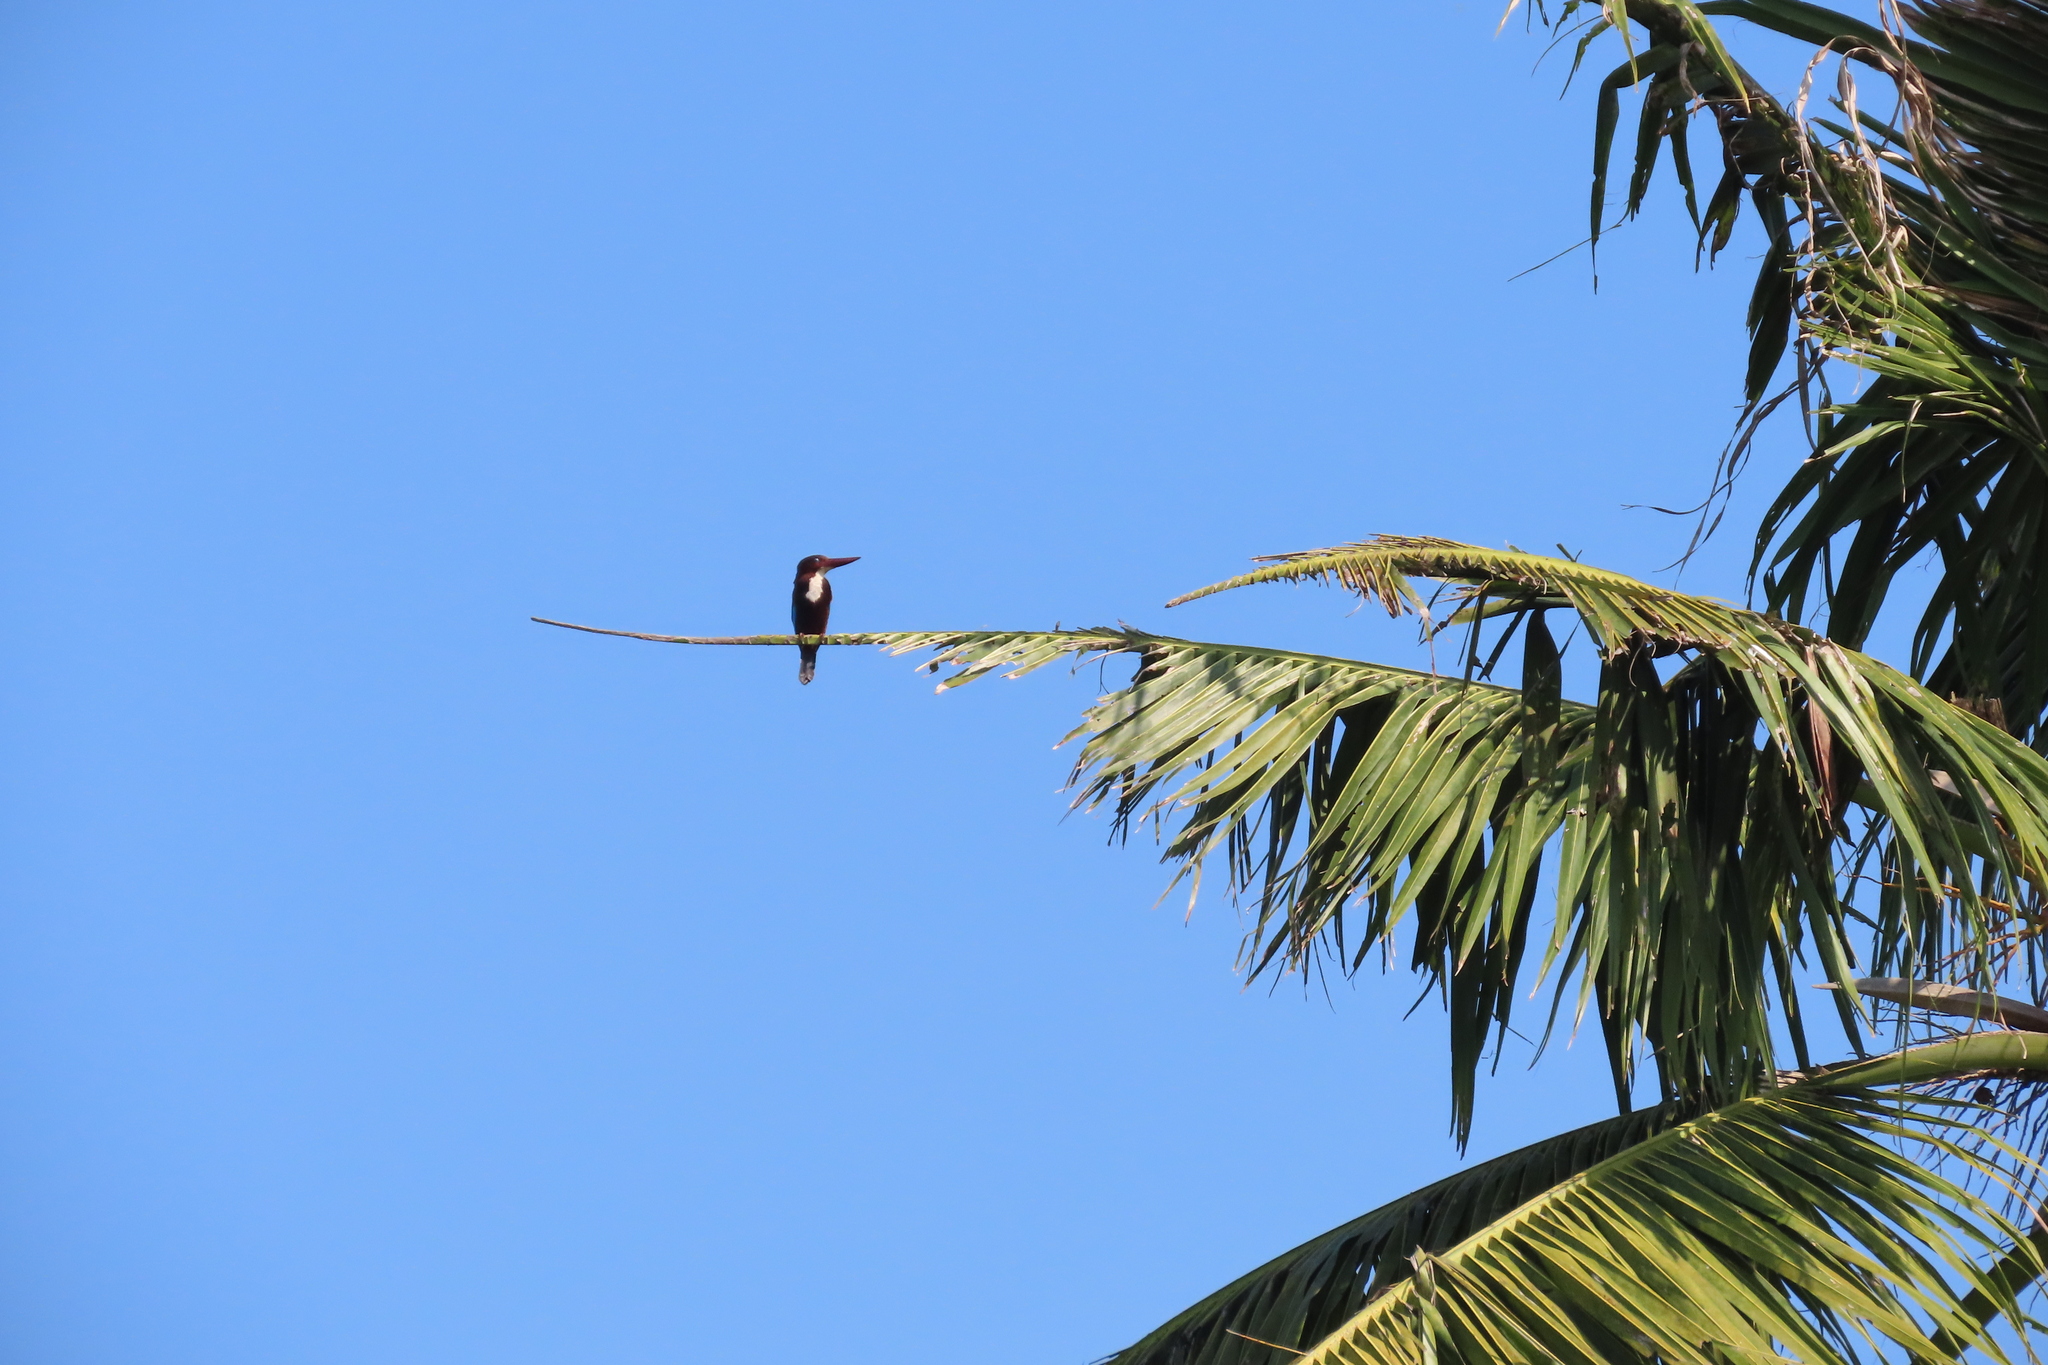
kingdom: Animalia
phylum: Chordata
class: Aves
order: Coraciiformes
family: Alcedinidae
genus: Halcyon
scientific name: Halcyon smyrnensis
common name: White-throated kingfisher
